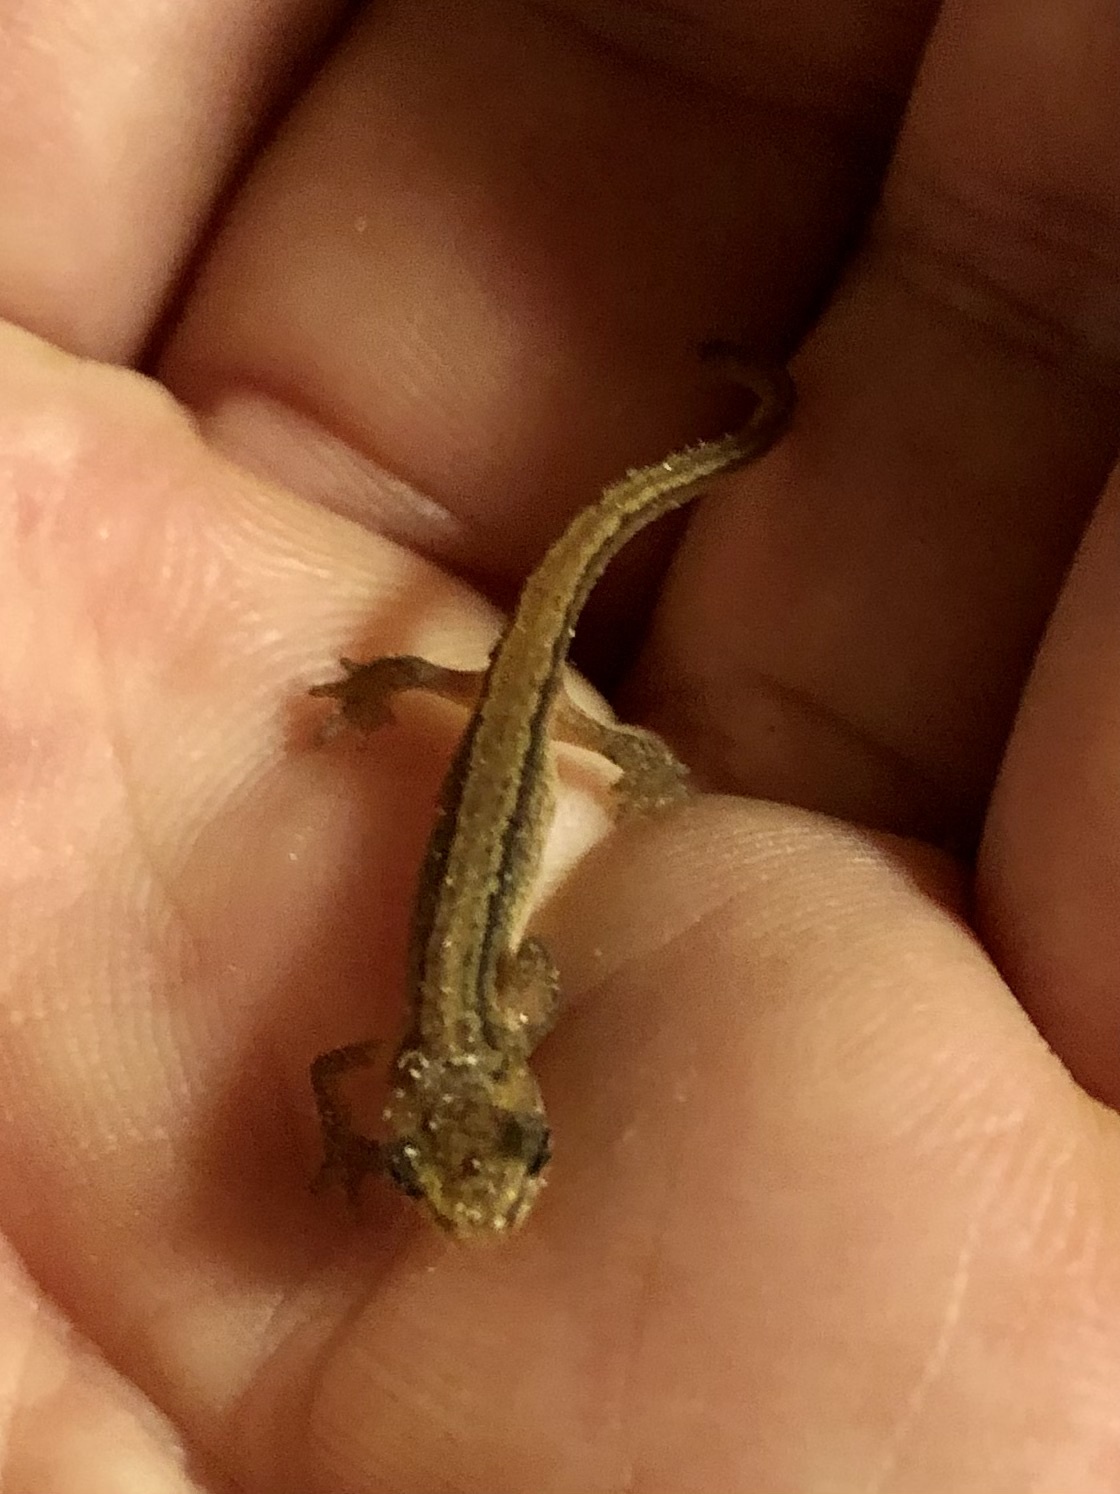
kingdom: Animalia
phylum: Chordata
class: Amphibia
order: Caudata
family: Salamandridae
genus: Lissotriton
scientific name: Lissotriton vulgaris
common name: Smooth newt
